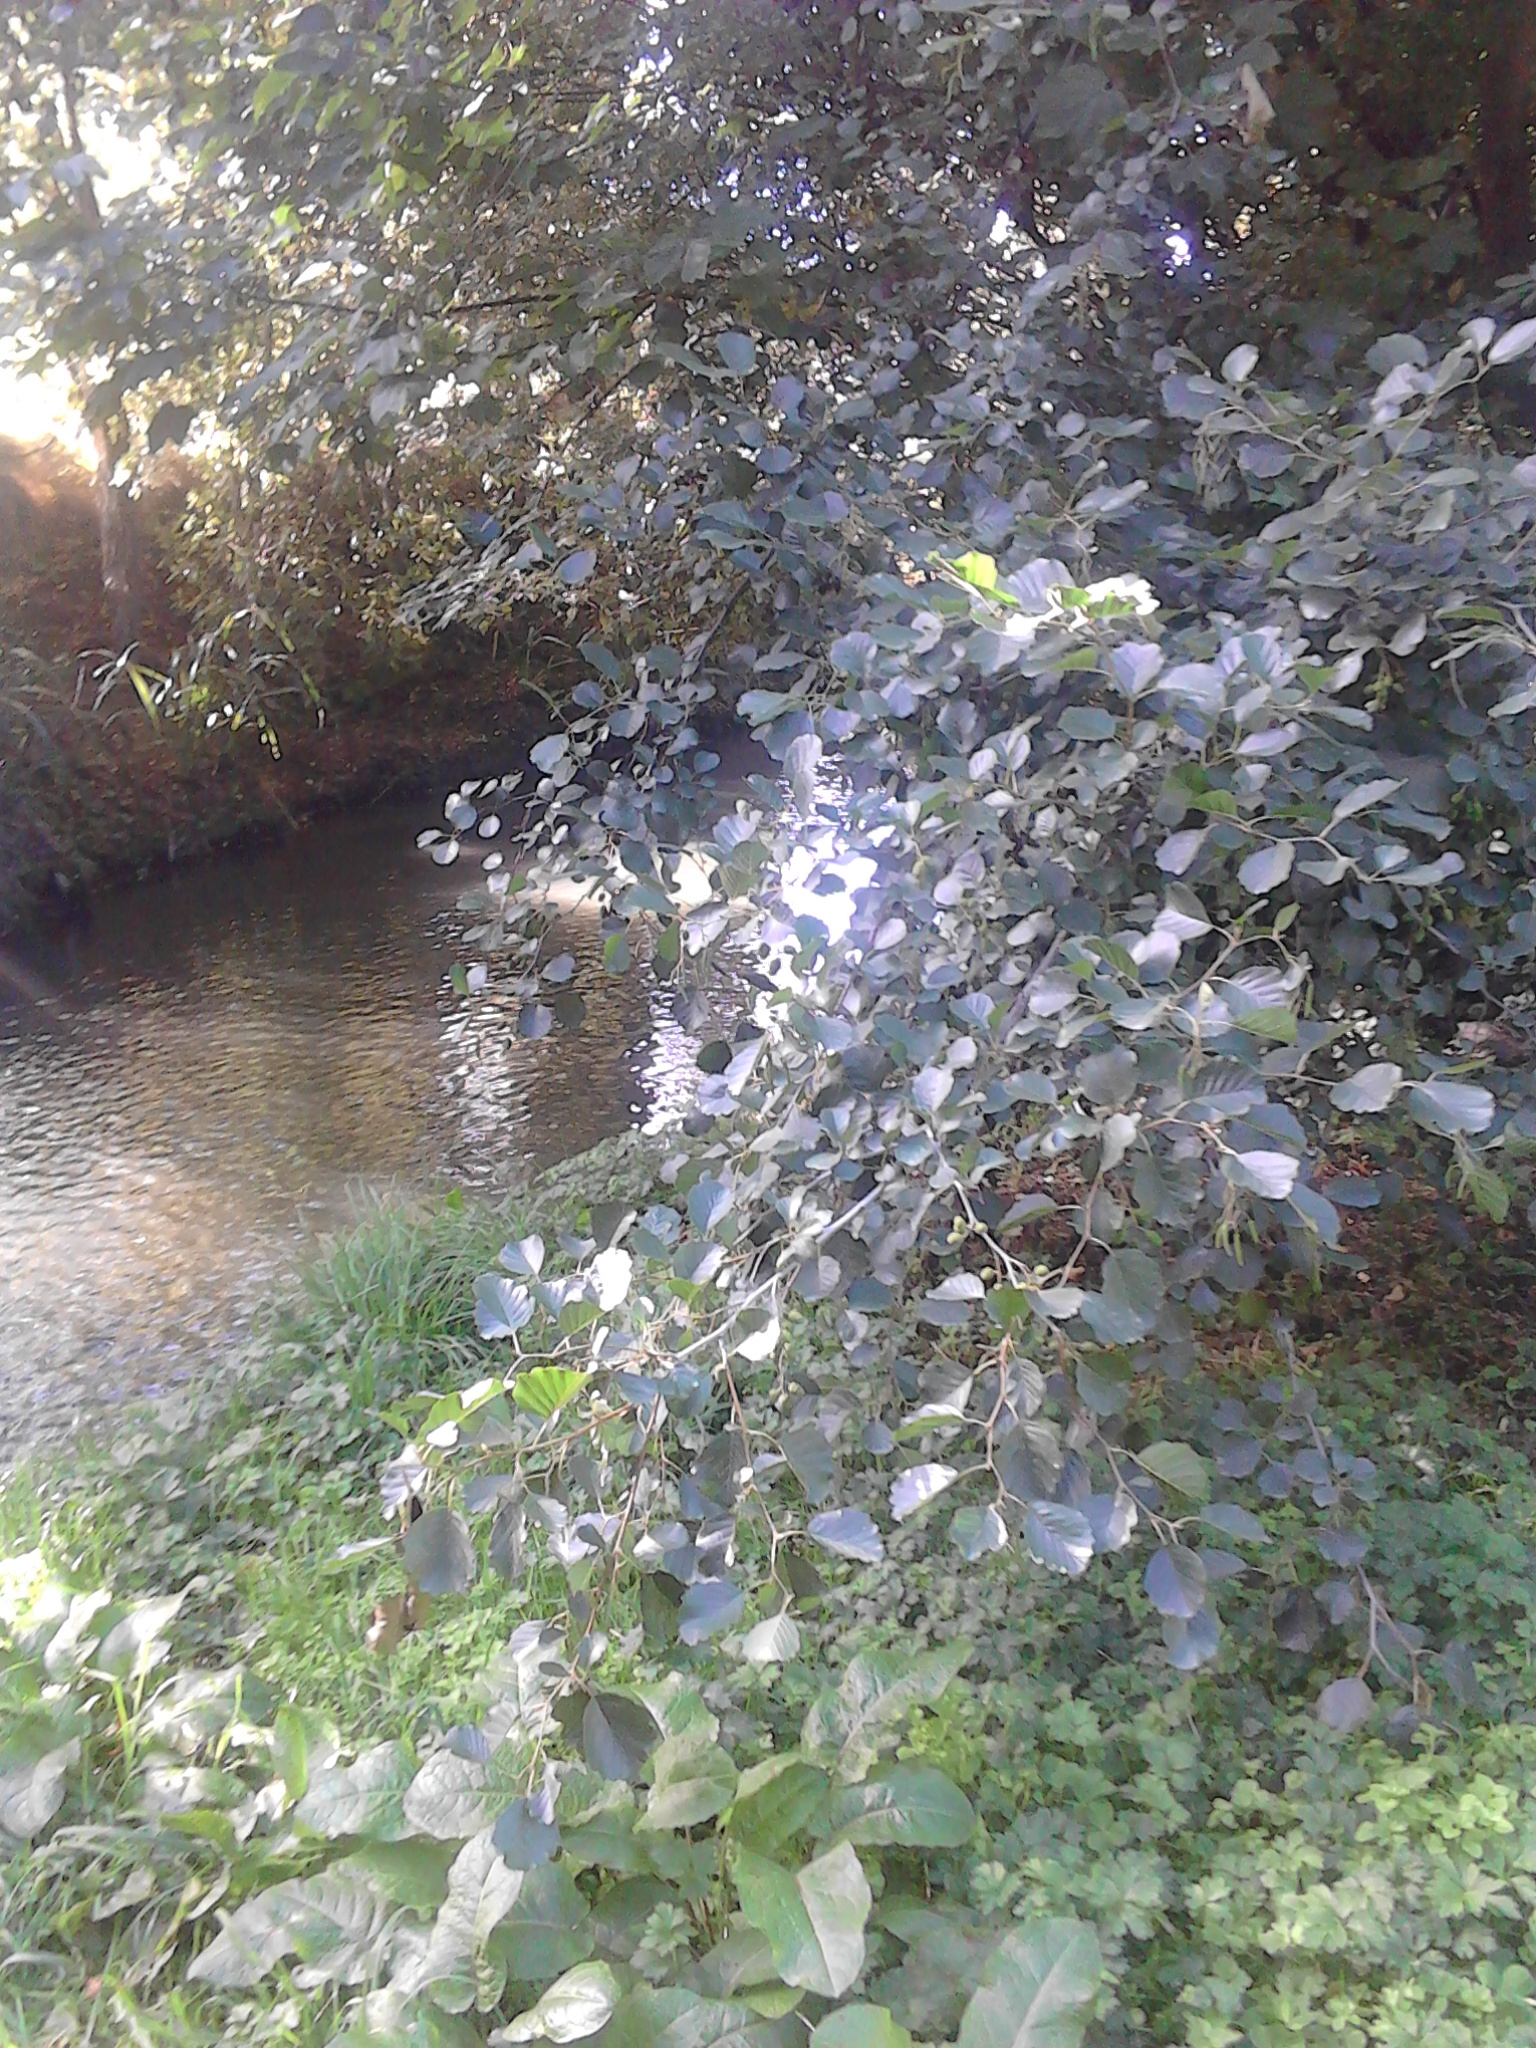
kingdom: Plantae
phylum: Tracheophyta
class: Magnoliopsida
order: Fagales
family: Betulaceae
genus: Alnus
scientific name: Alnus glutinosa
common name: Black alder
